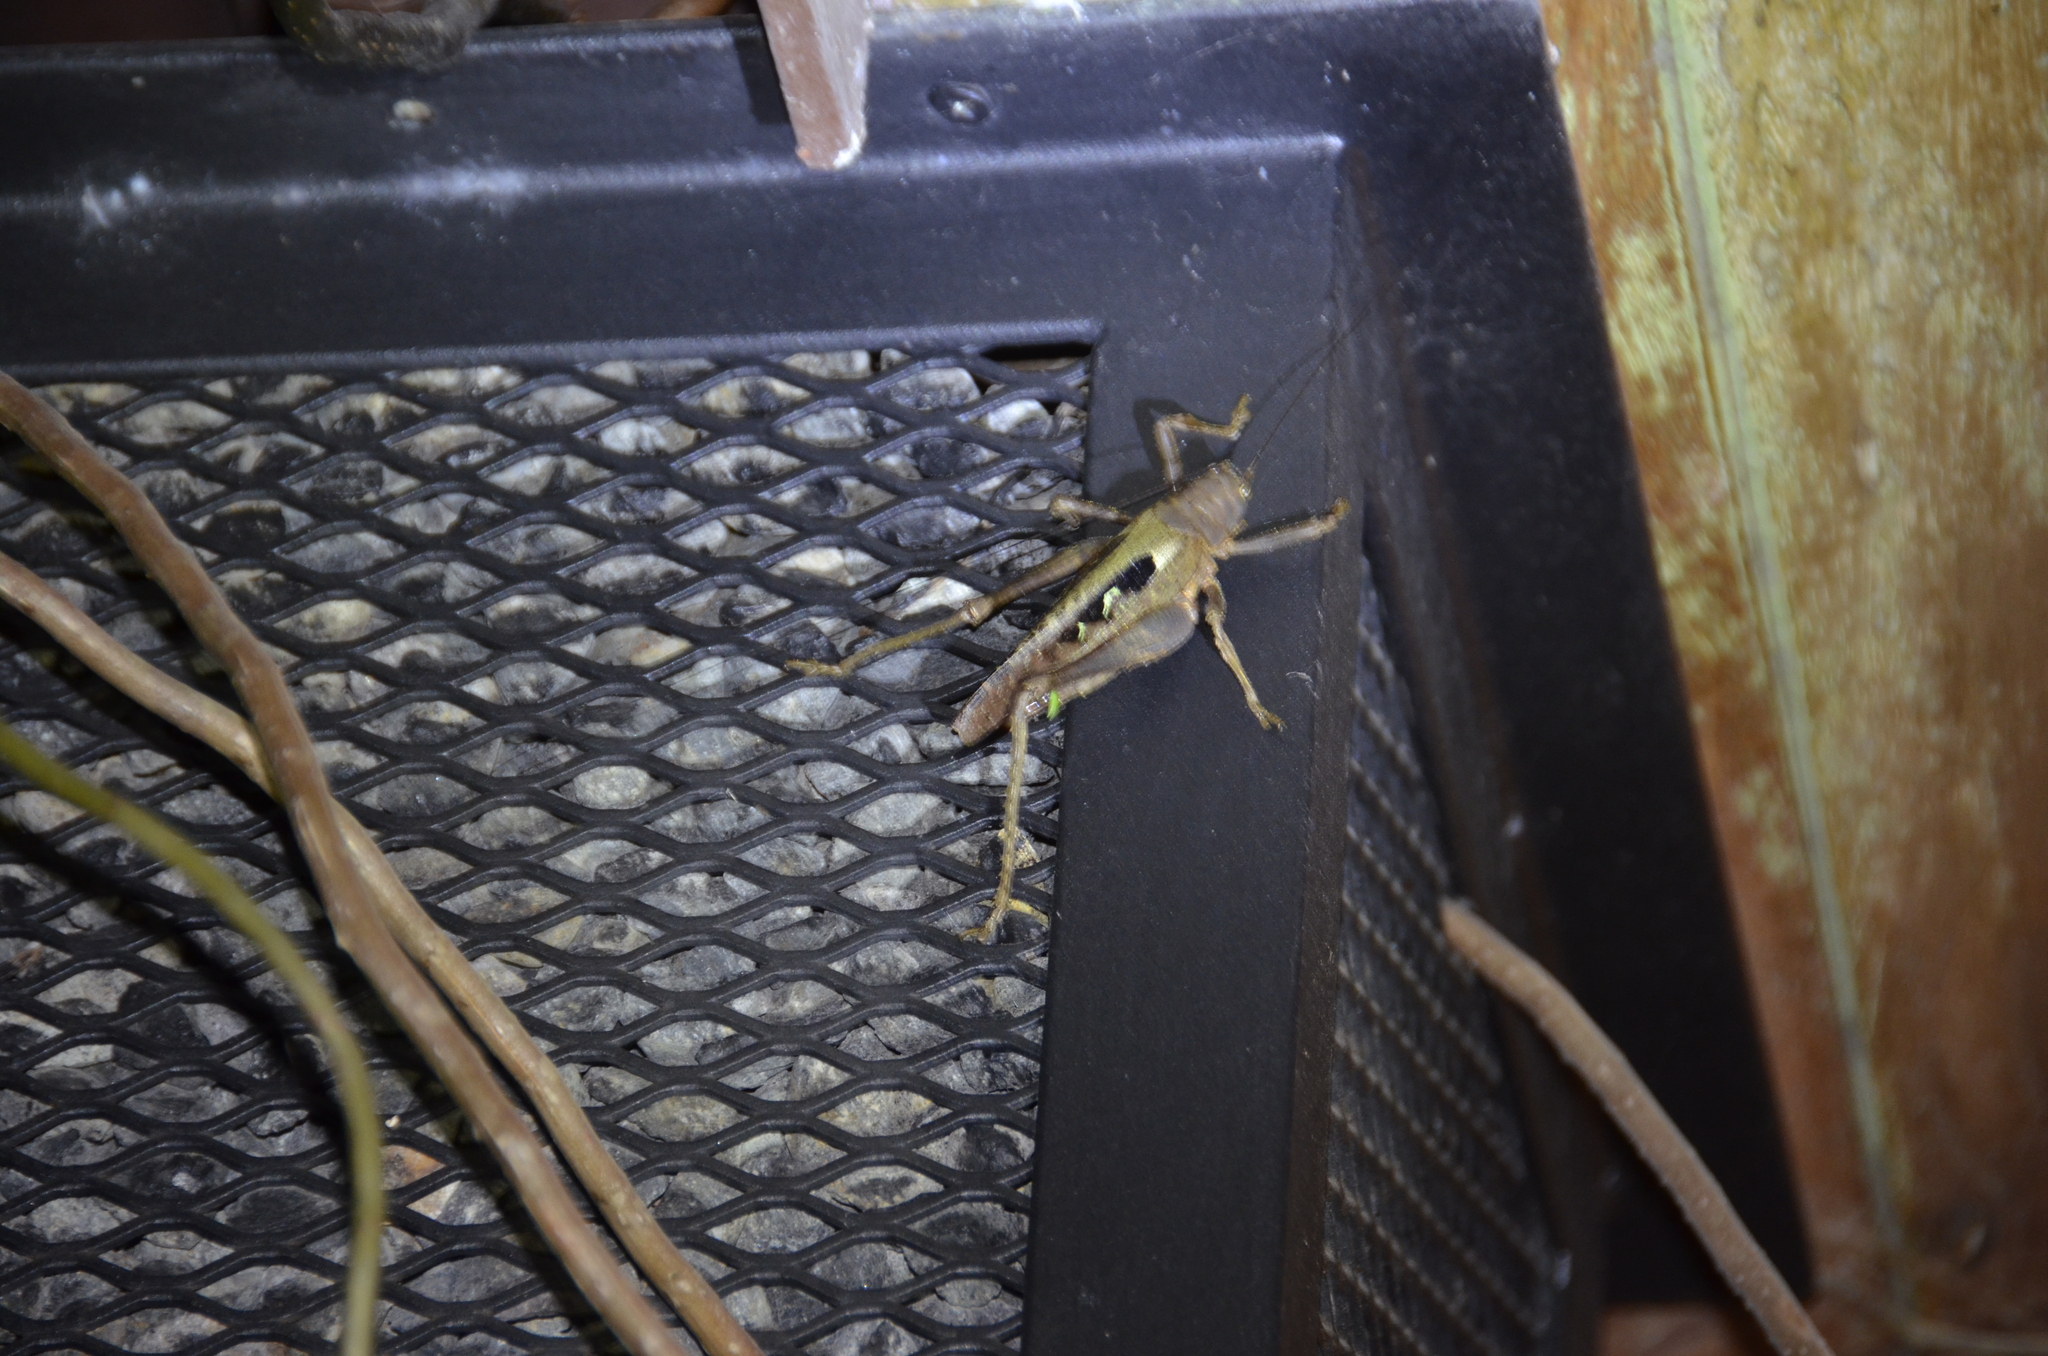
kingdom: Animalia
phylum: Arthropoda
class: Insecta
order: Orthoptera
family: Tettigoniidae
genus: Balboana
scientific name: Balboana tibialis
